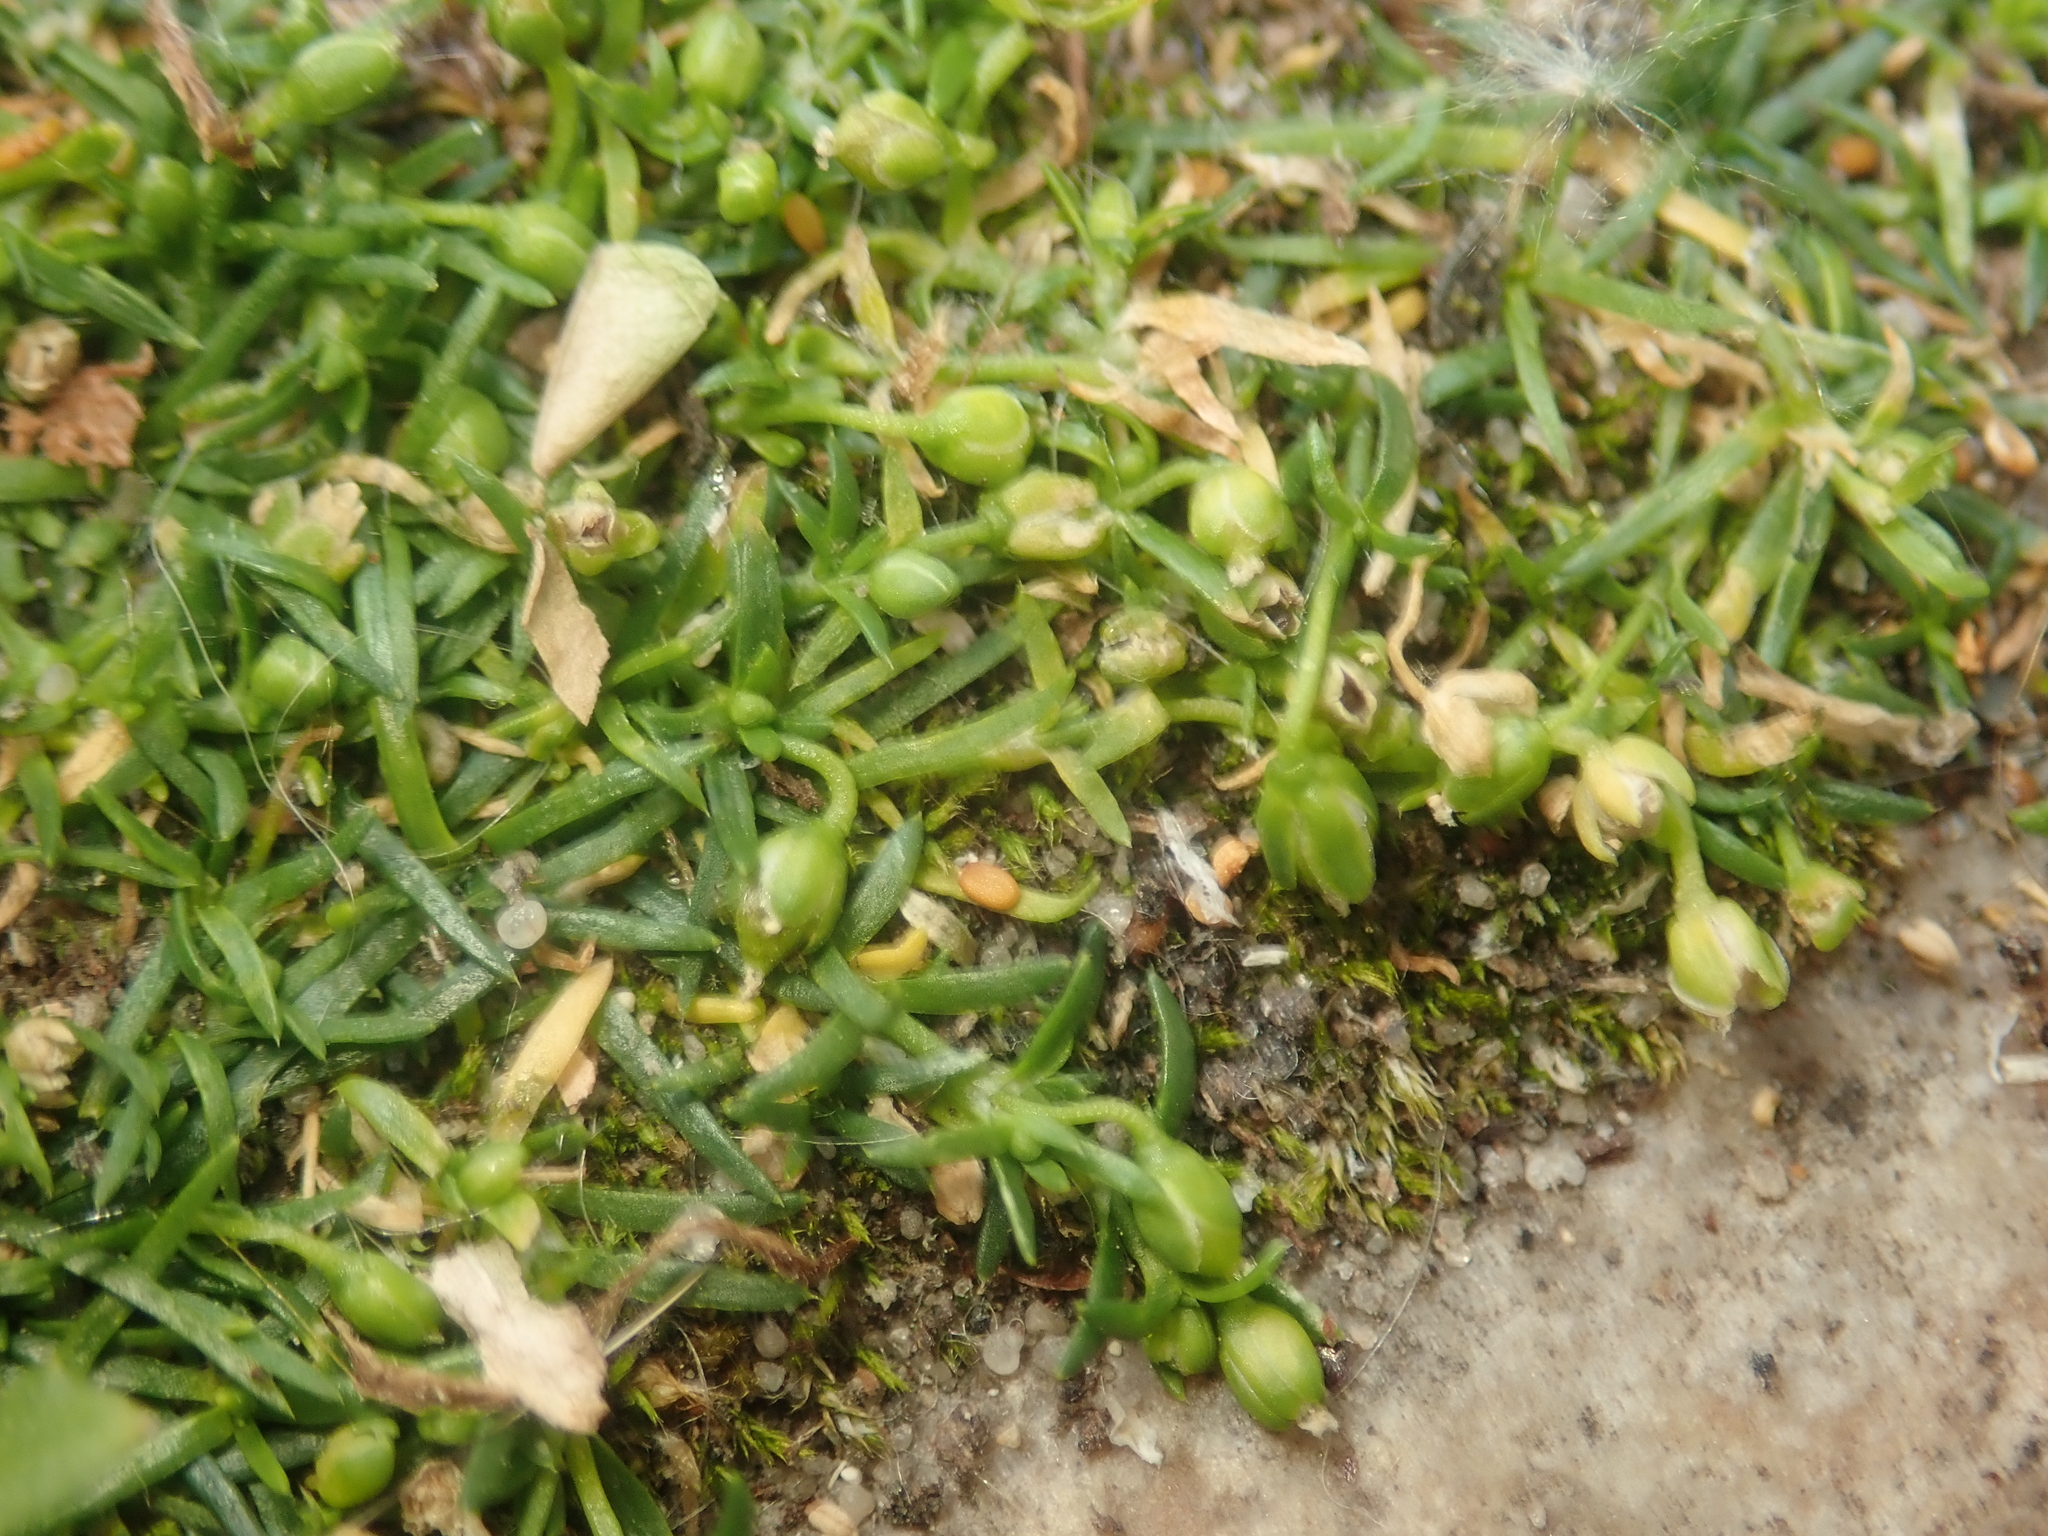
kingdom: Plantae
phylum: Tracheophyta
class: Magnoliopsida
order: Caryophyllales
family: Caryophyllaceae
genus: Sagina
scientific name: Sagina procumbens
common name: Procumbent pearlwort
